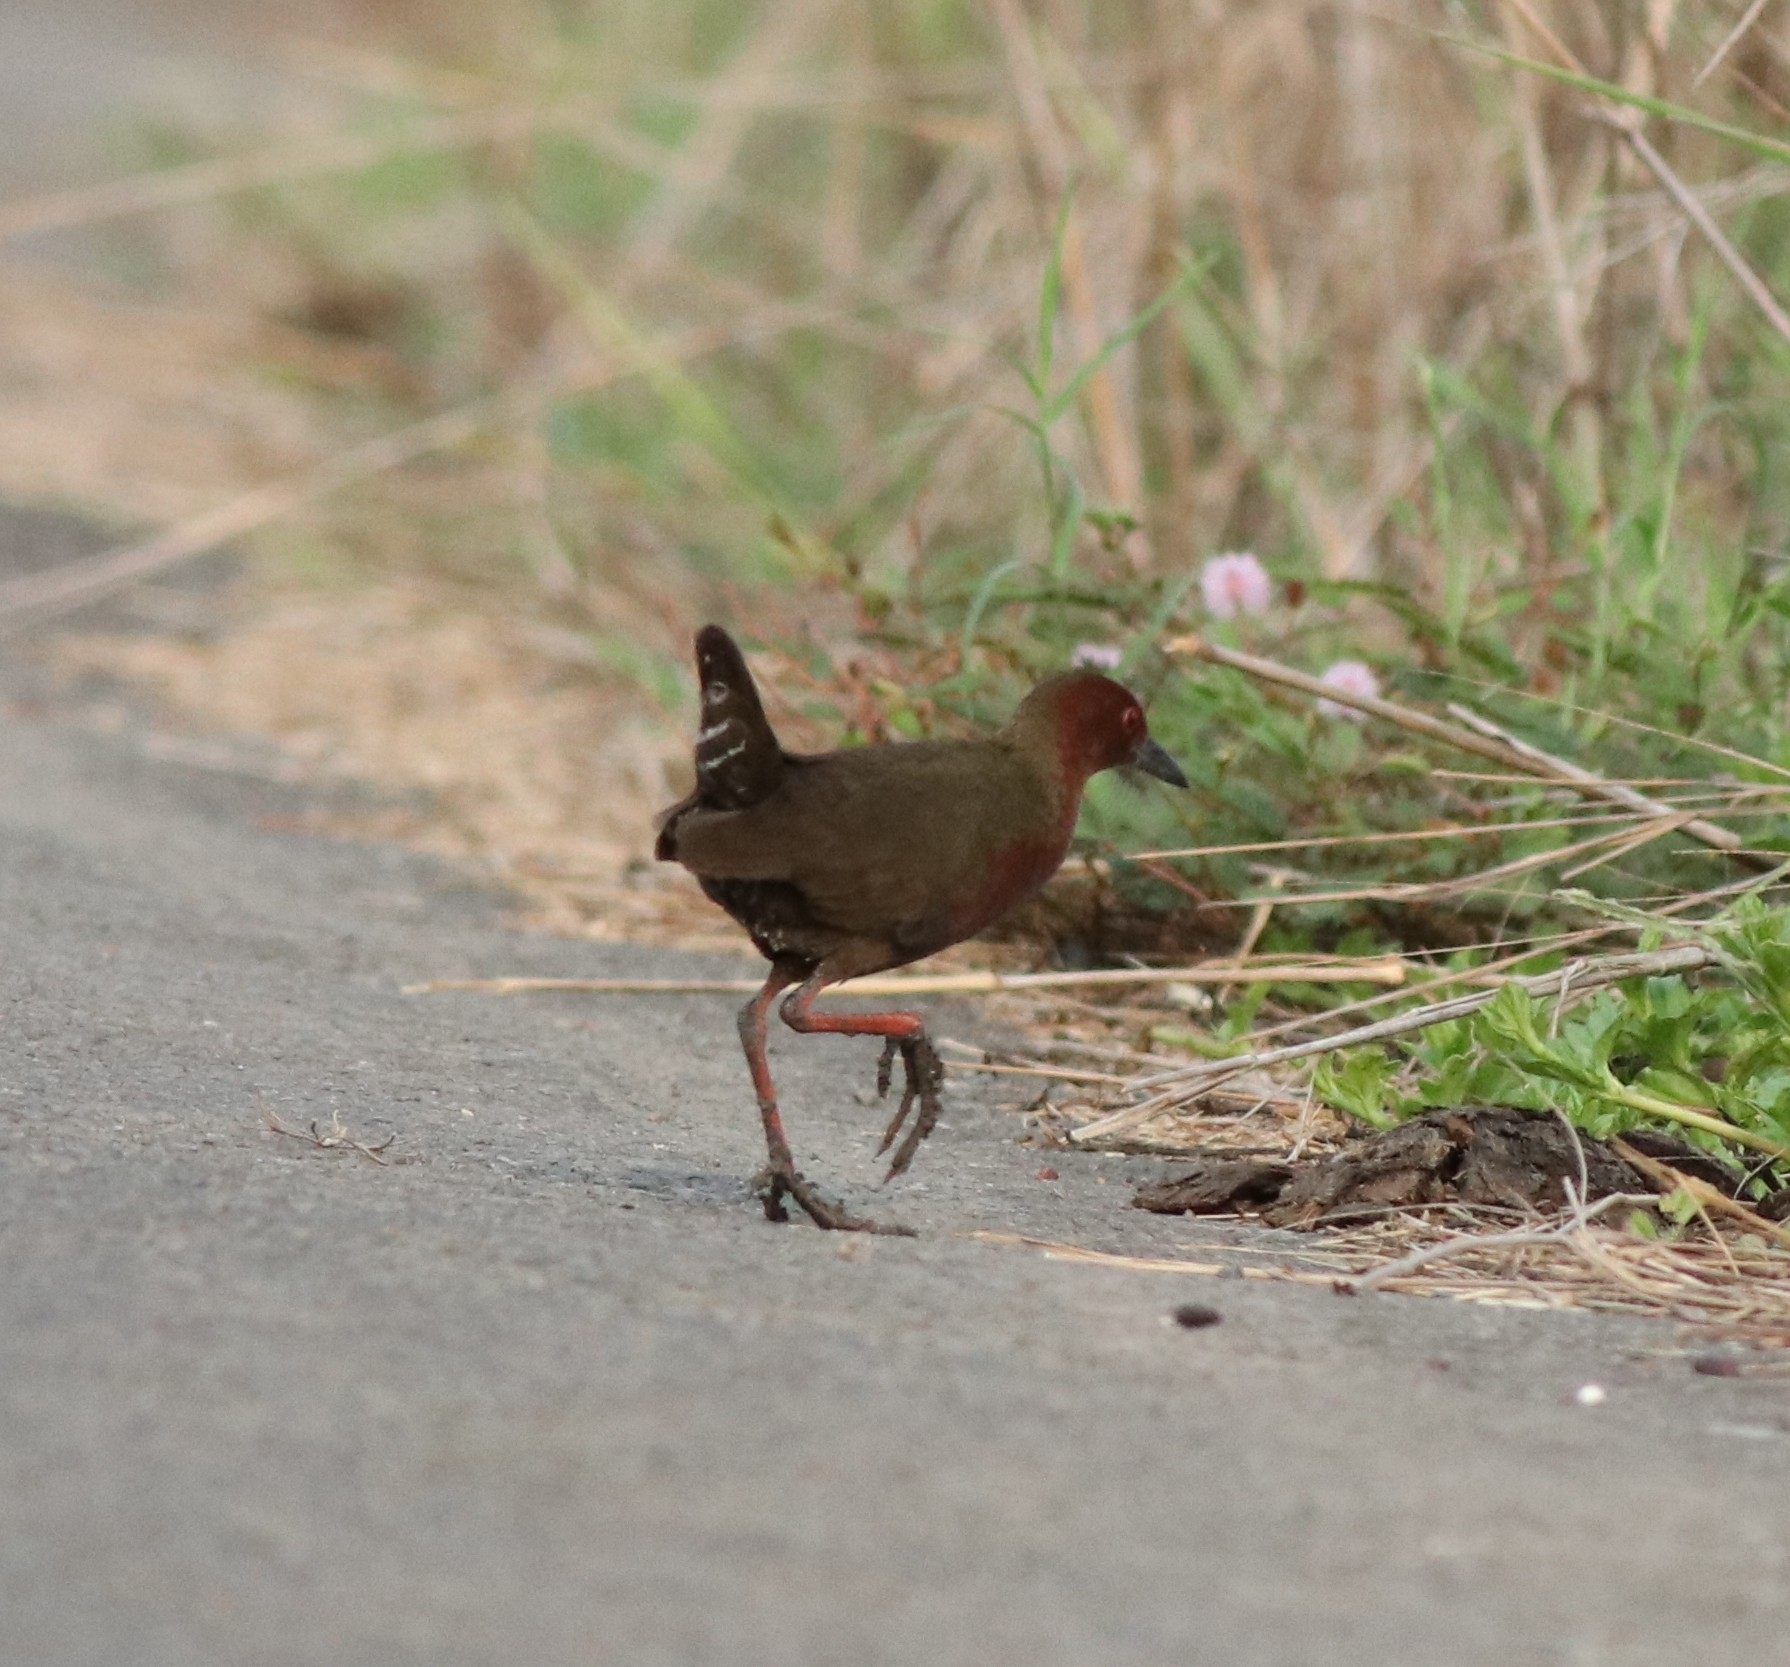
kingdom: Animalia
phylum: Chordata
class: Aves
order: Gruiformes
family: Rallidae
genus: Porzana
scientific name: Porzana fusca
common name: Ruddy-breasted crake
